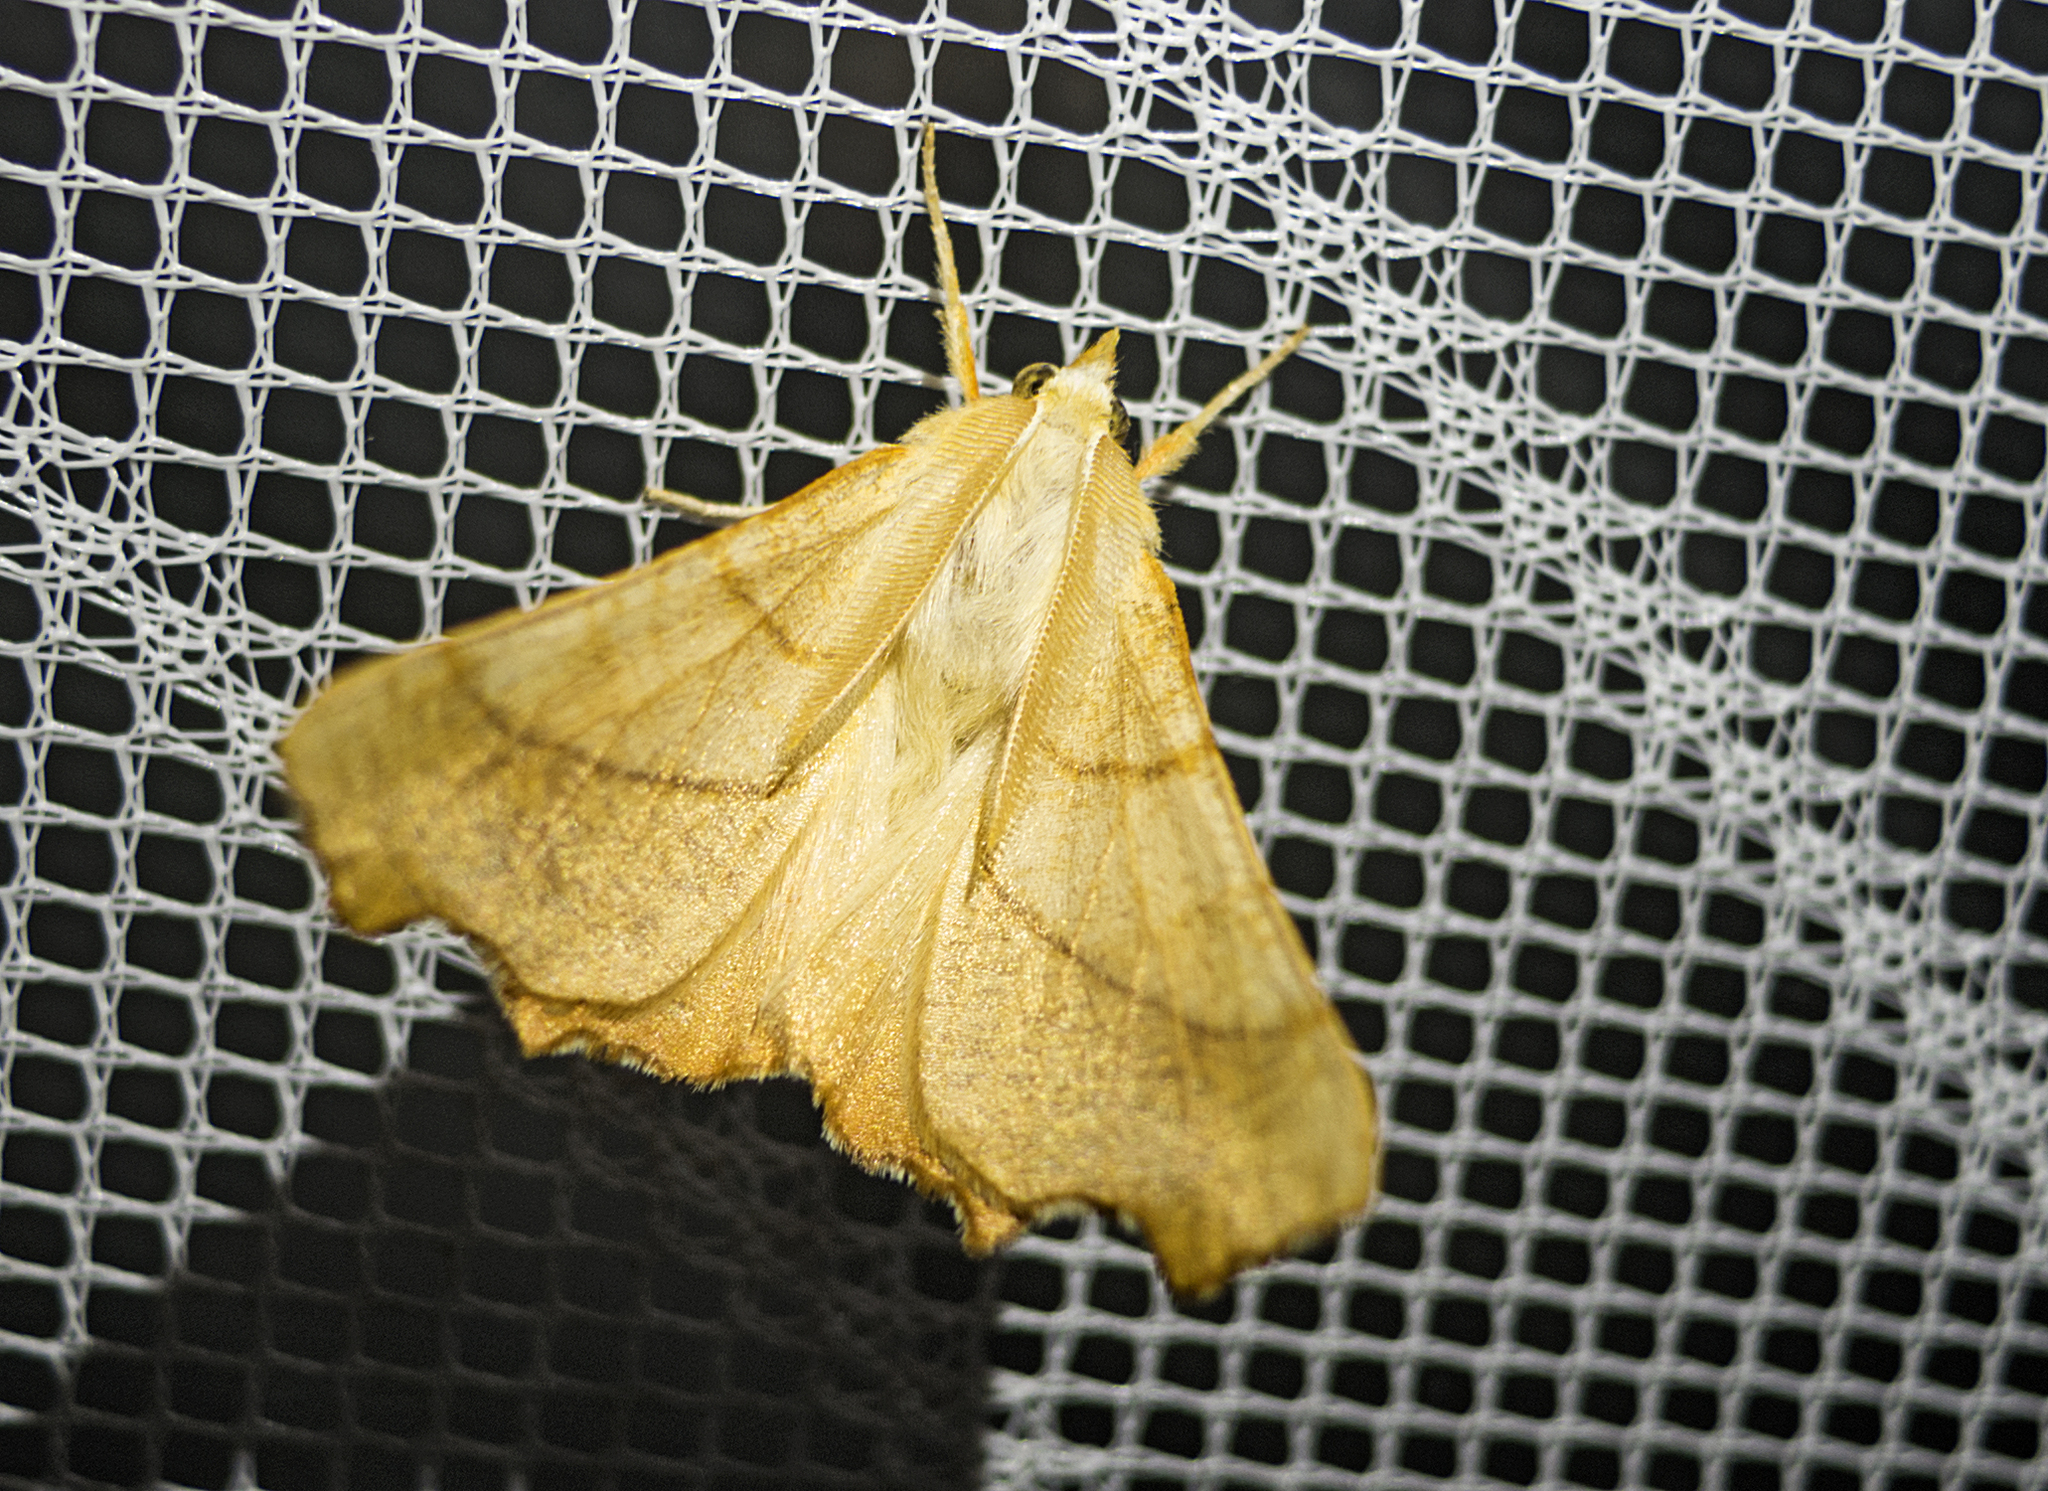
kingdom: Animalia
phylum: Arthropoda
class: Insecta
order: Lepidoptera
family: Geometridae
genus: Ennomos
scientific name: Ennomos fuscantaria
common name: Dusky thorn
